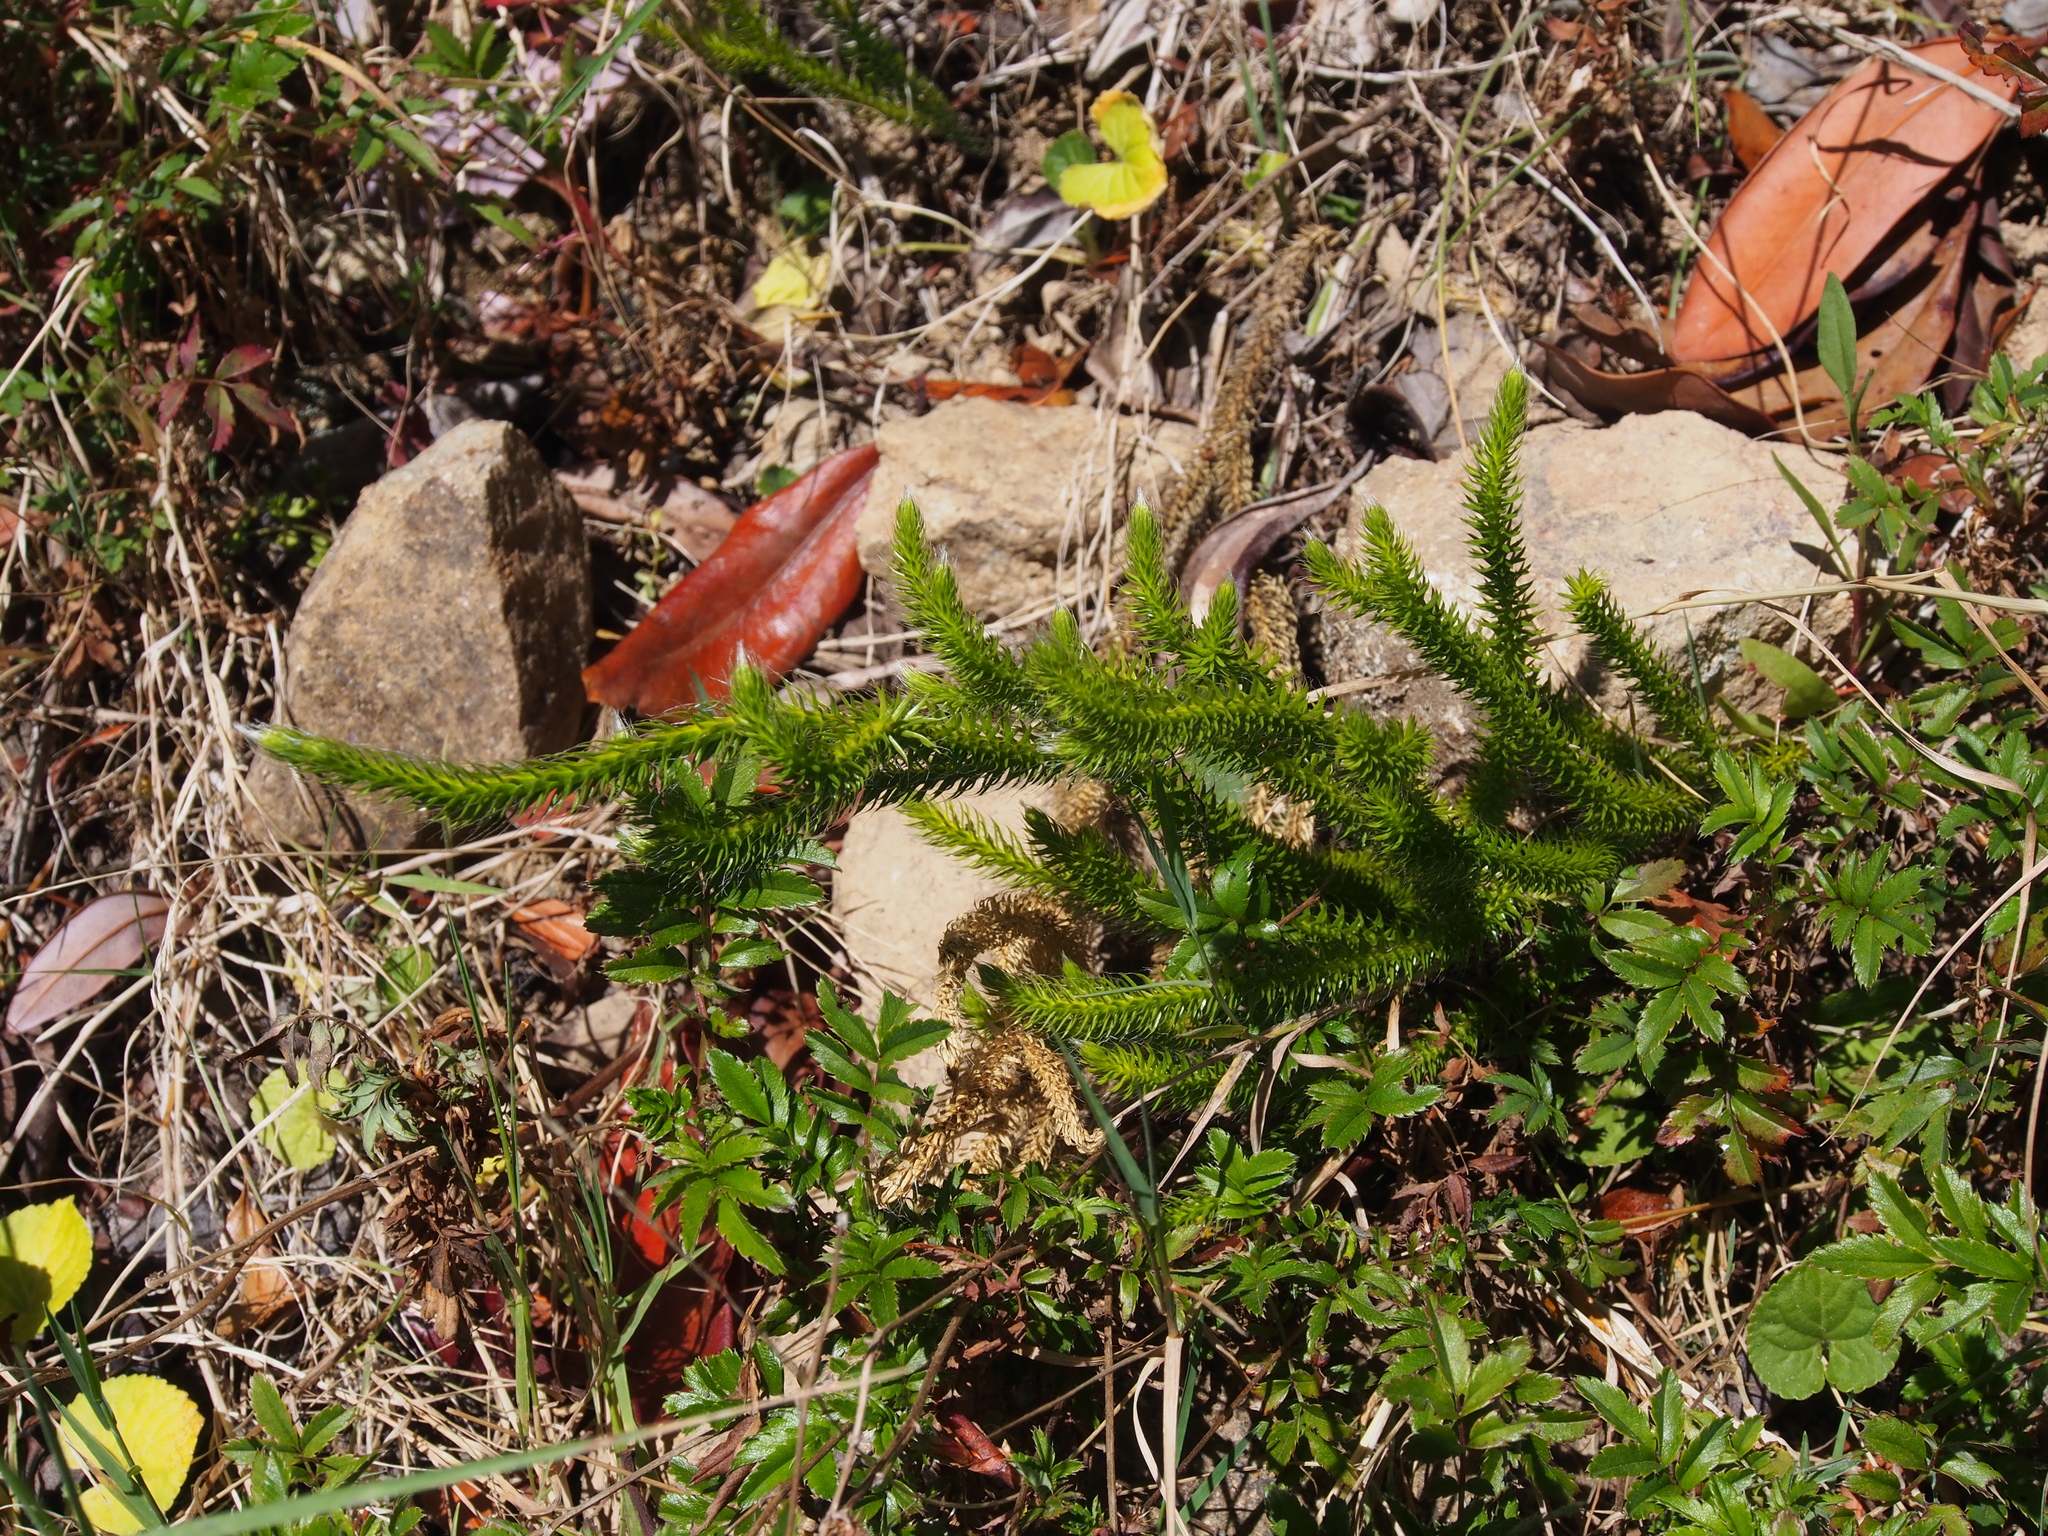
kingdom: Plantae
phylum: Tracheophyta
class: Lycopodiopsida
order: Lycopodiales
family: Lycopodiaceae
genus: Lycopodium
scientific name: Lycopodium clavatum
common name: Stag's-horn clubmoss
